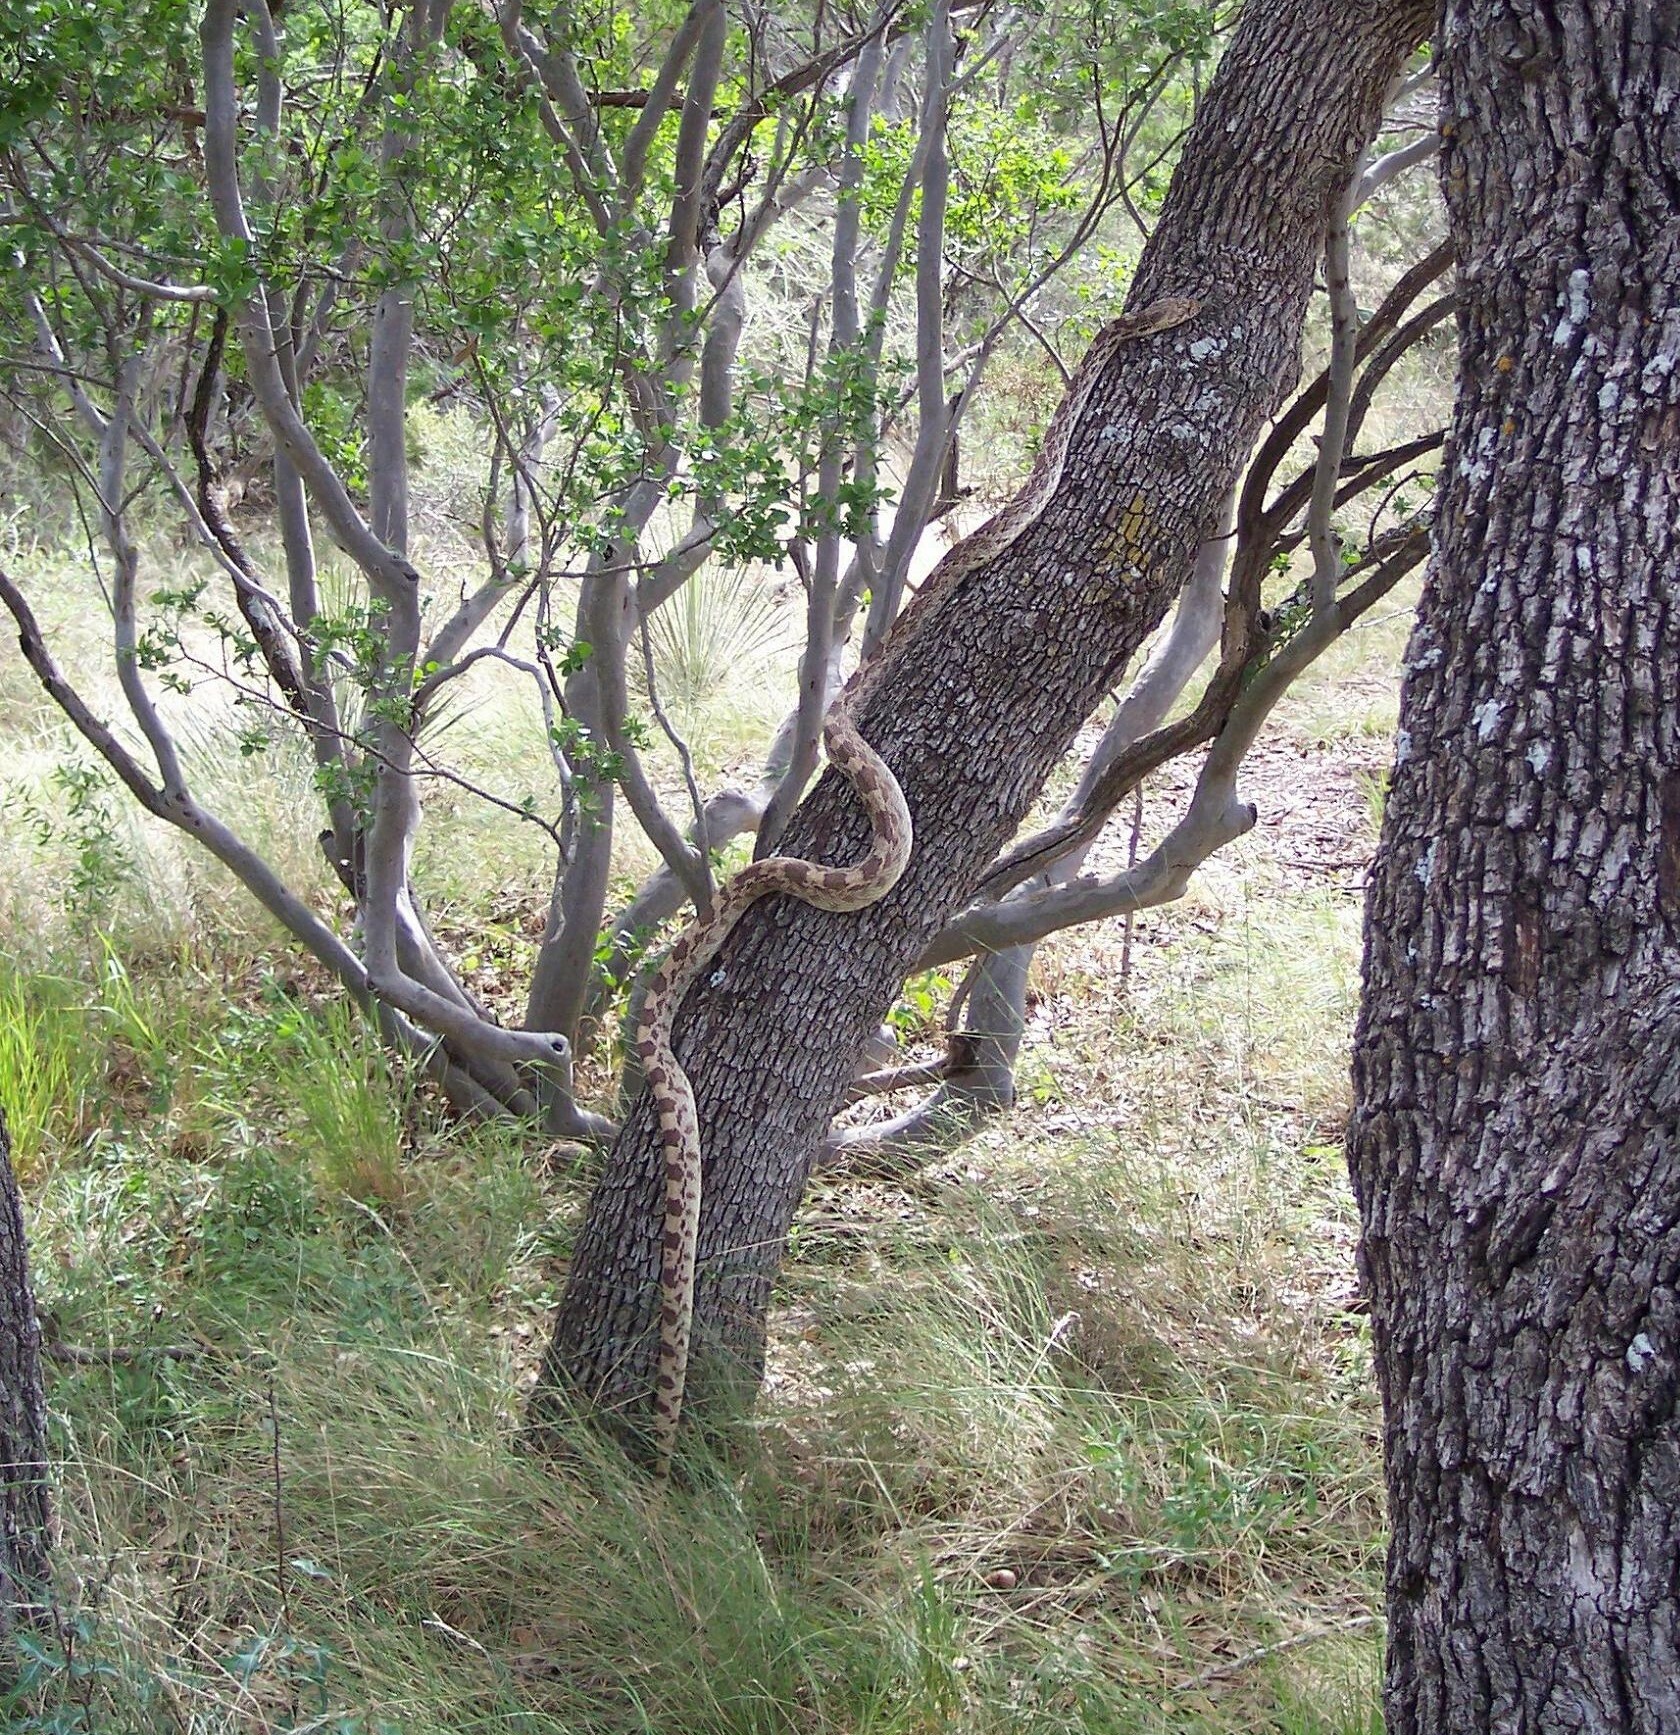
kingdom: Animalia
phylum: Chordata
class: Squamata
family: Colubridae
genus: Pituophis
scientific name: Pituophis catenifer
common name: Gopher snake
